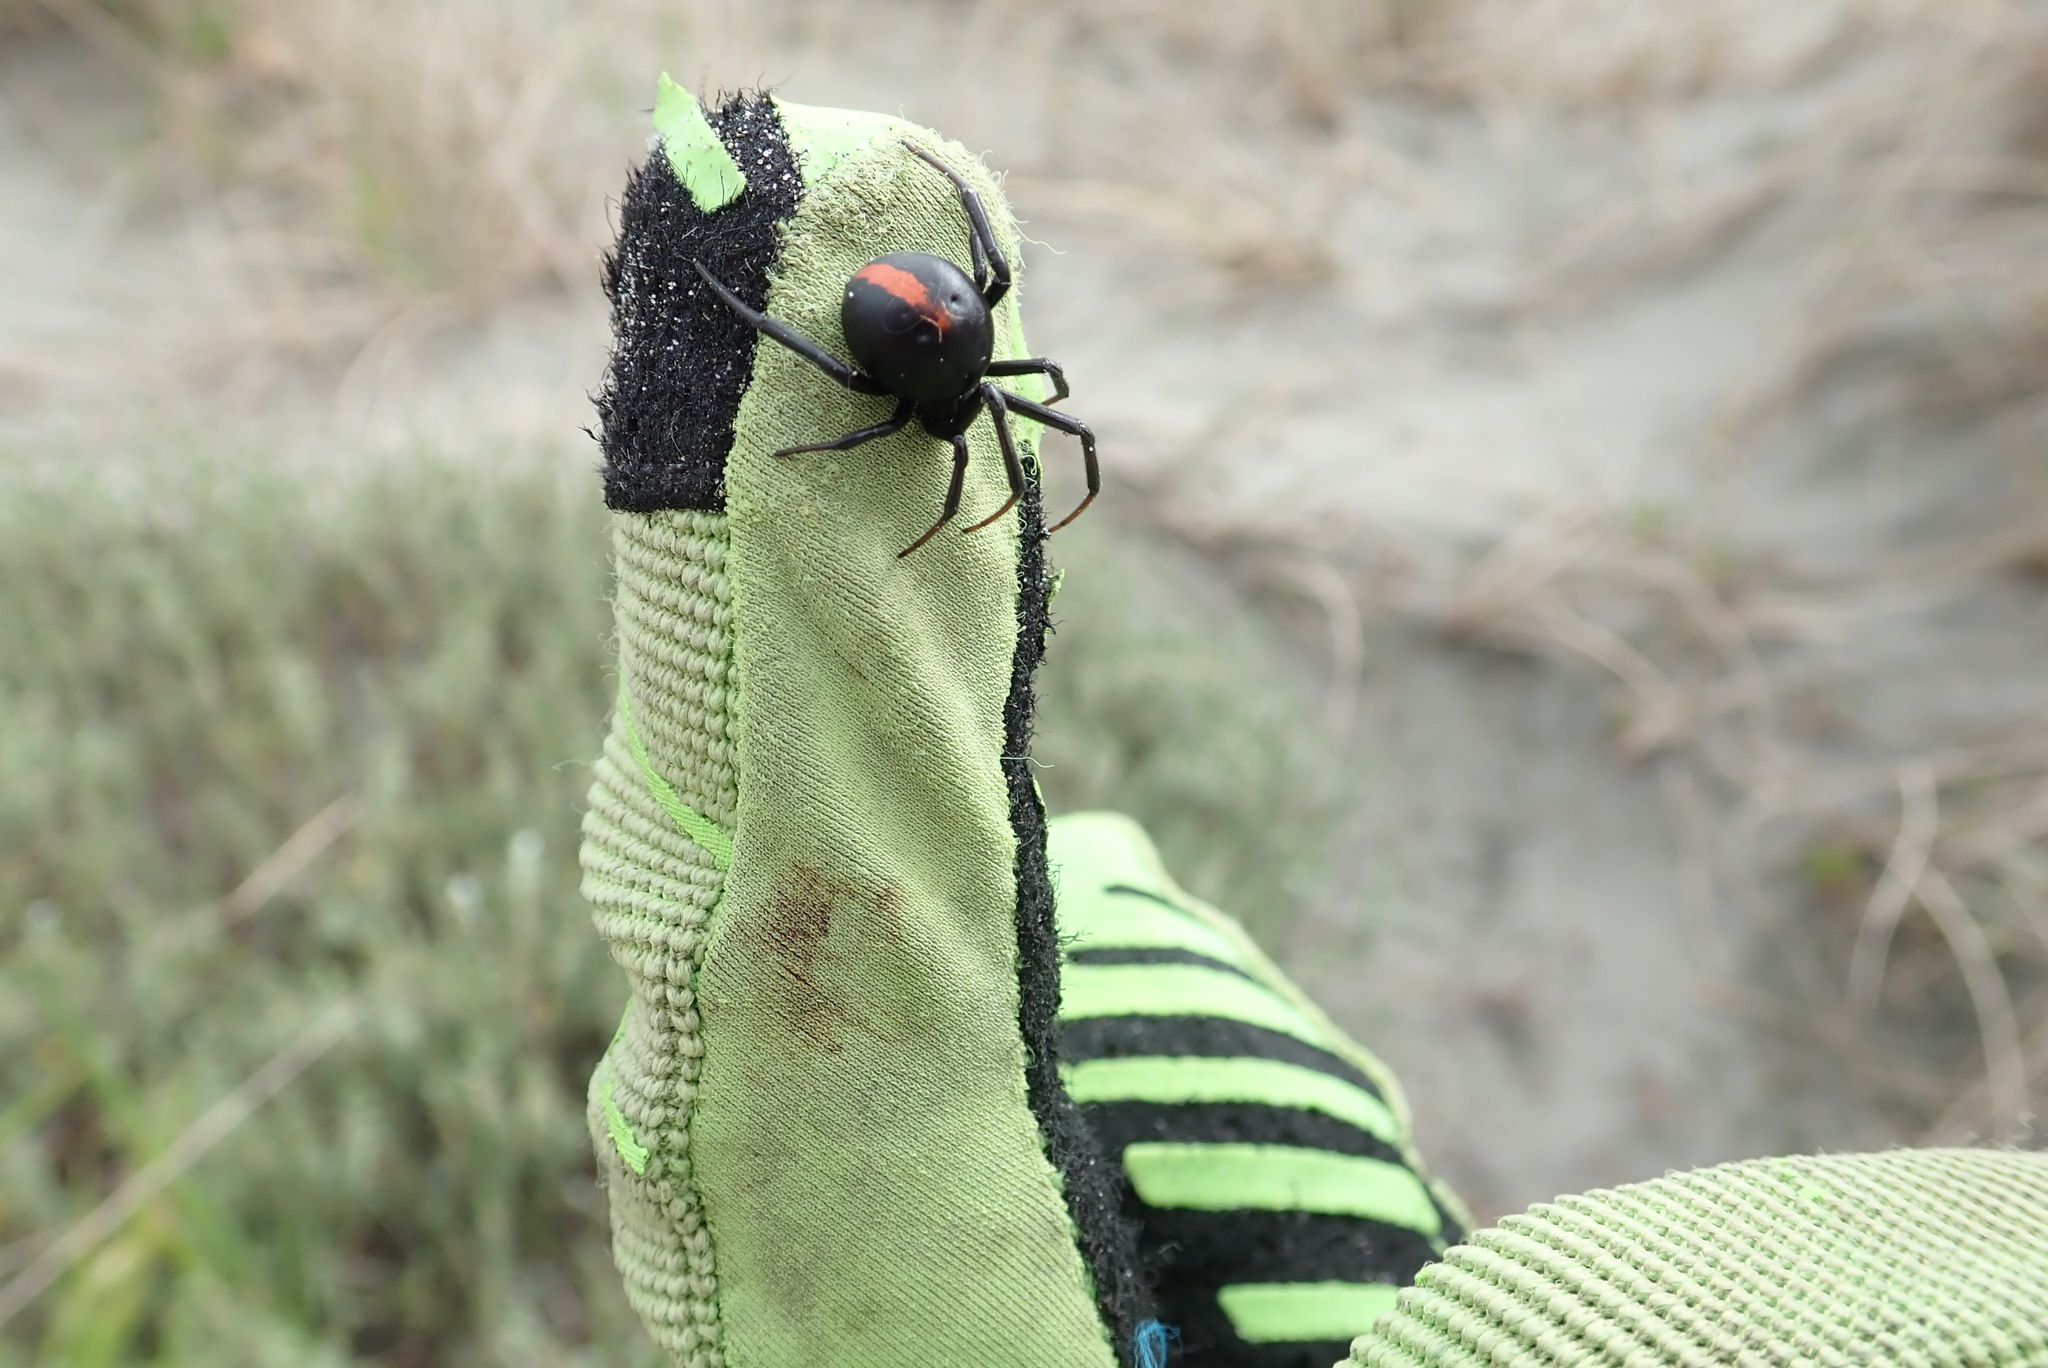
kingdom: Animalia
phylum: Arthropoda
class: Arachnida
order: Araneae
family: Theridiidae
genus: Latrodectus
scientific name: Latrodectus katipo
